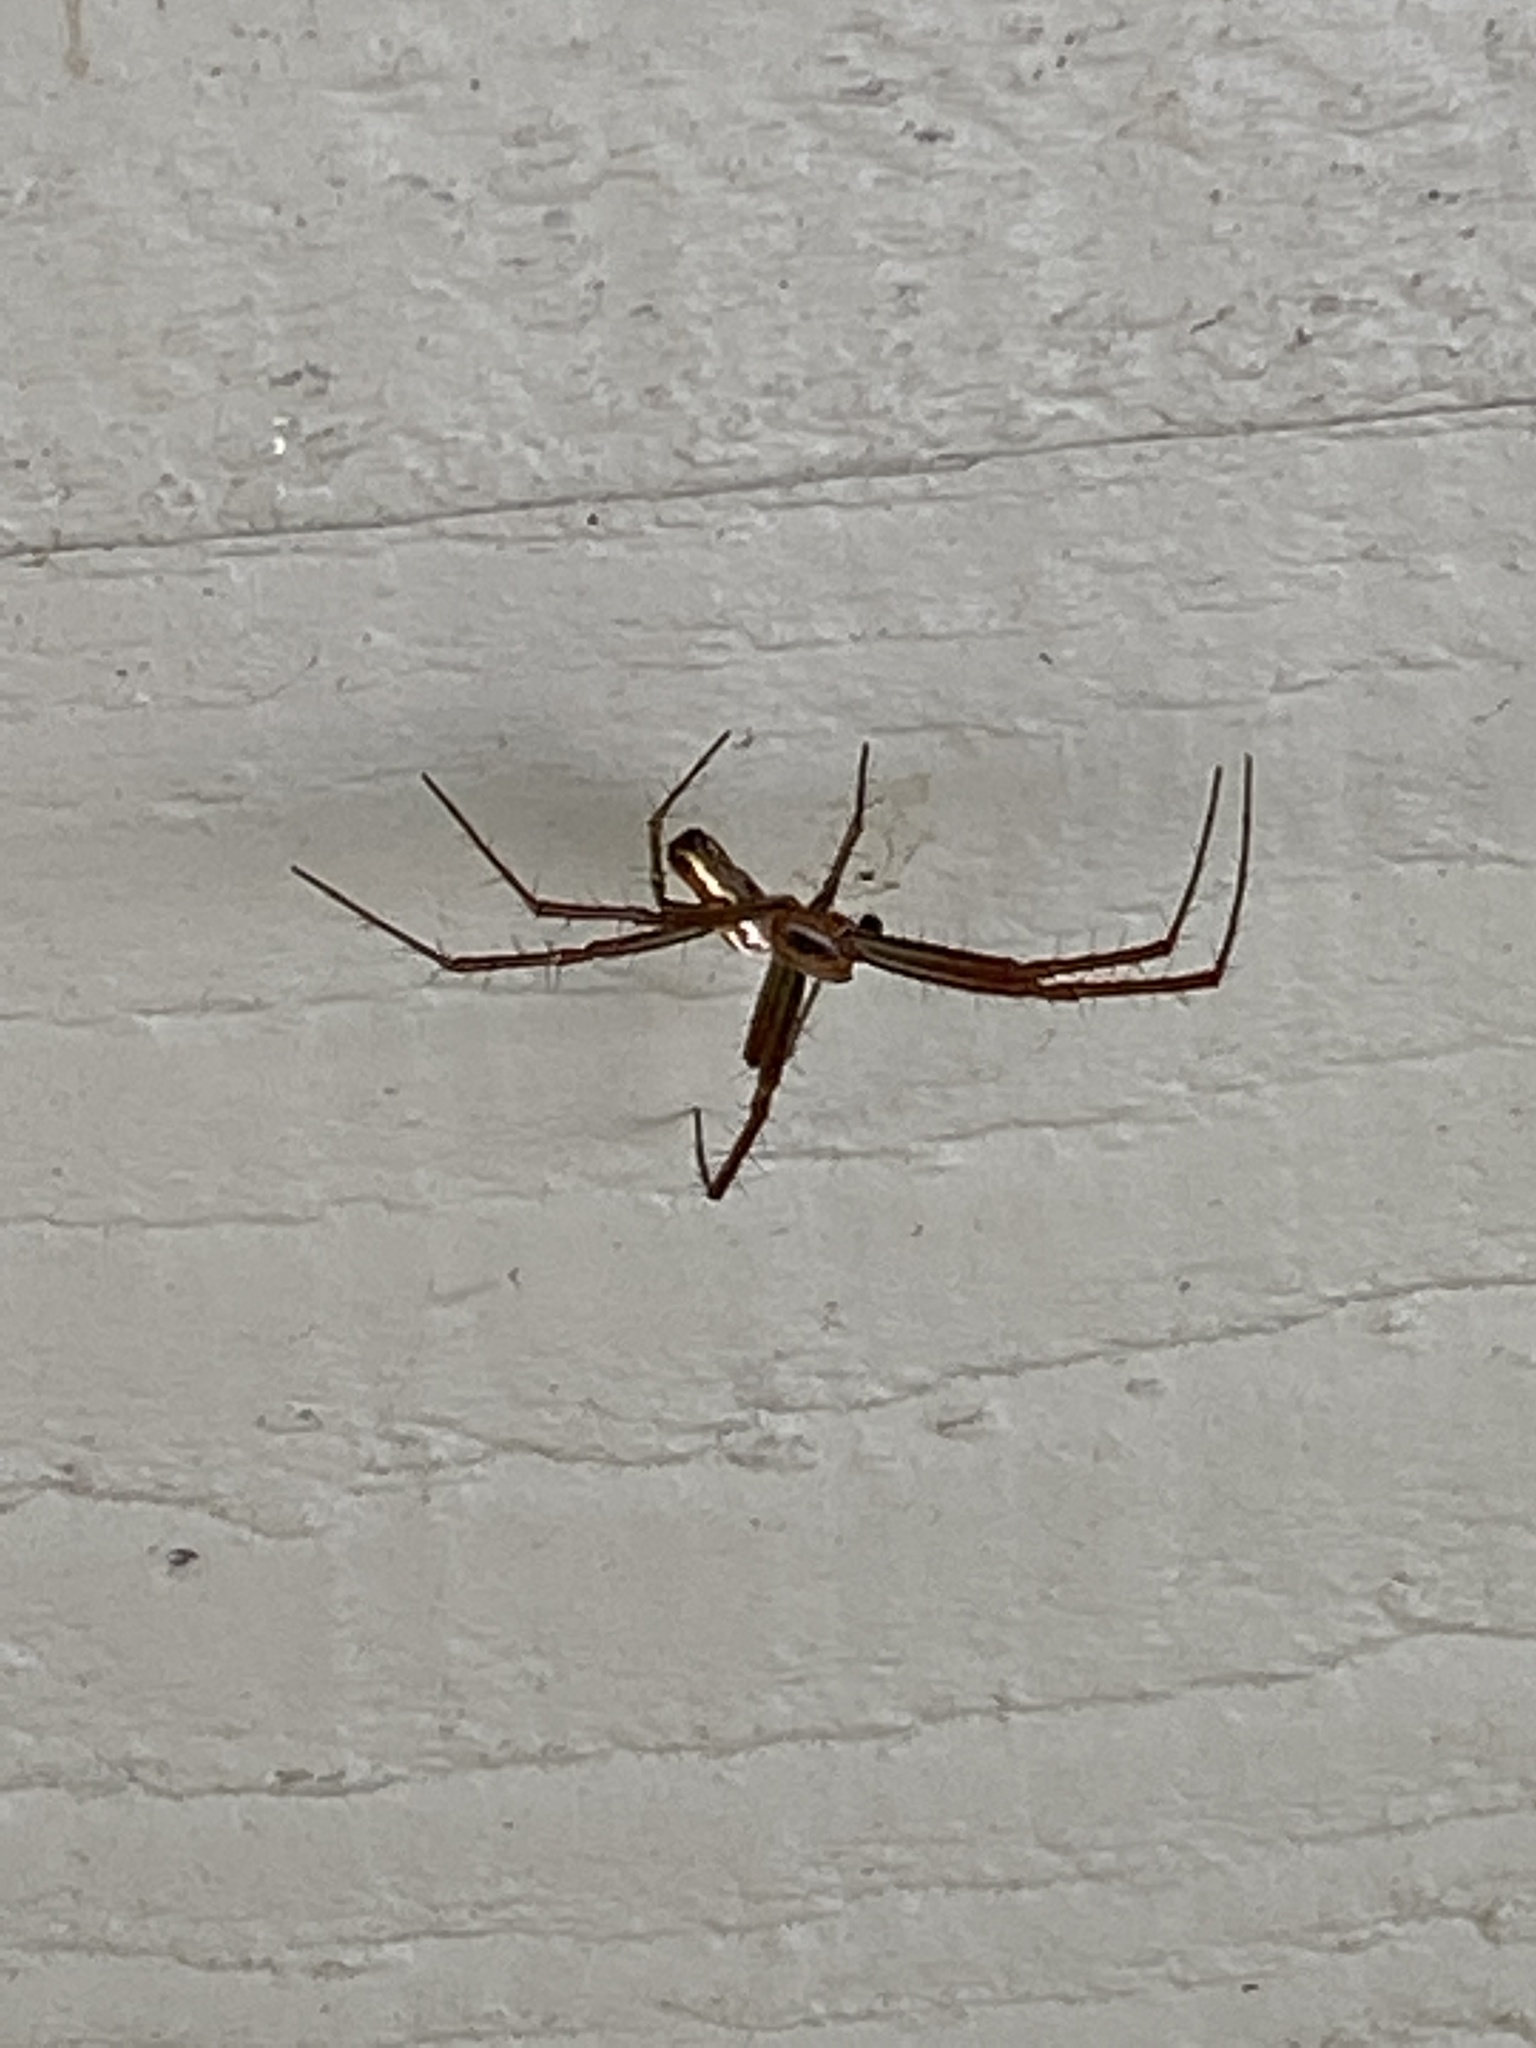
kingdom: Animalia
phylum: Arthropoda
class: Arachnida
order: Araneae
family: Araneidae
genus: Mecynogea
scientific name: Mecynogea lemniscata
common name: Orb weavers
